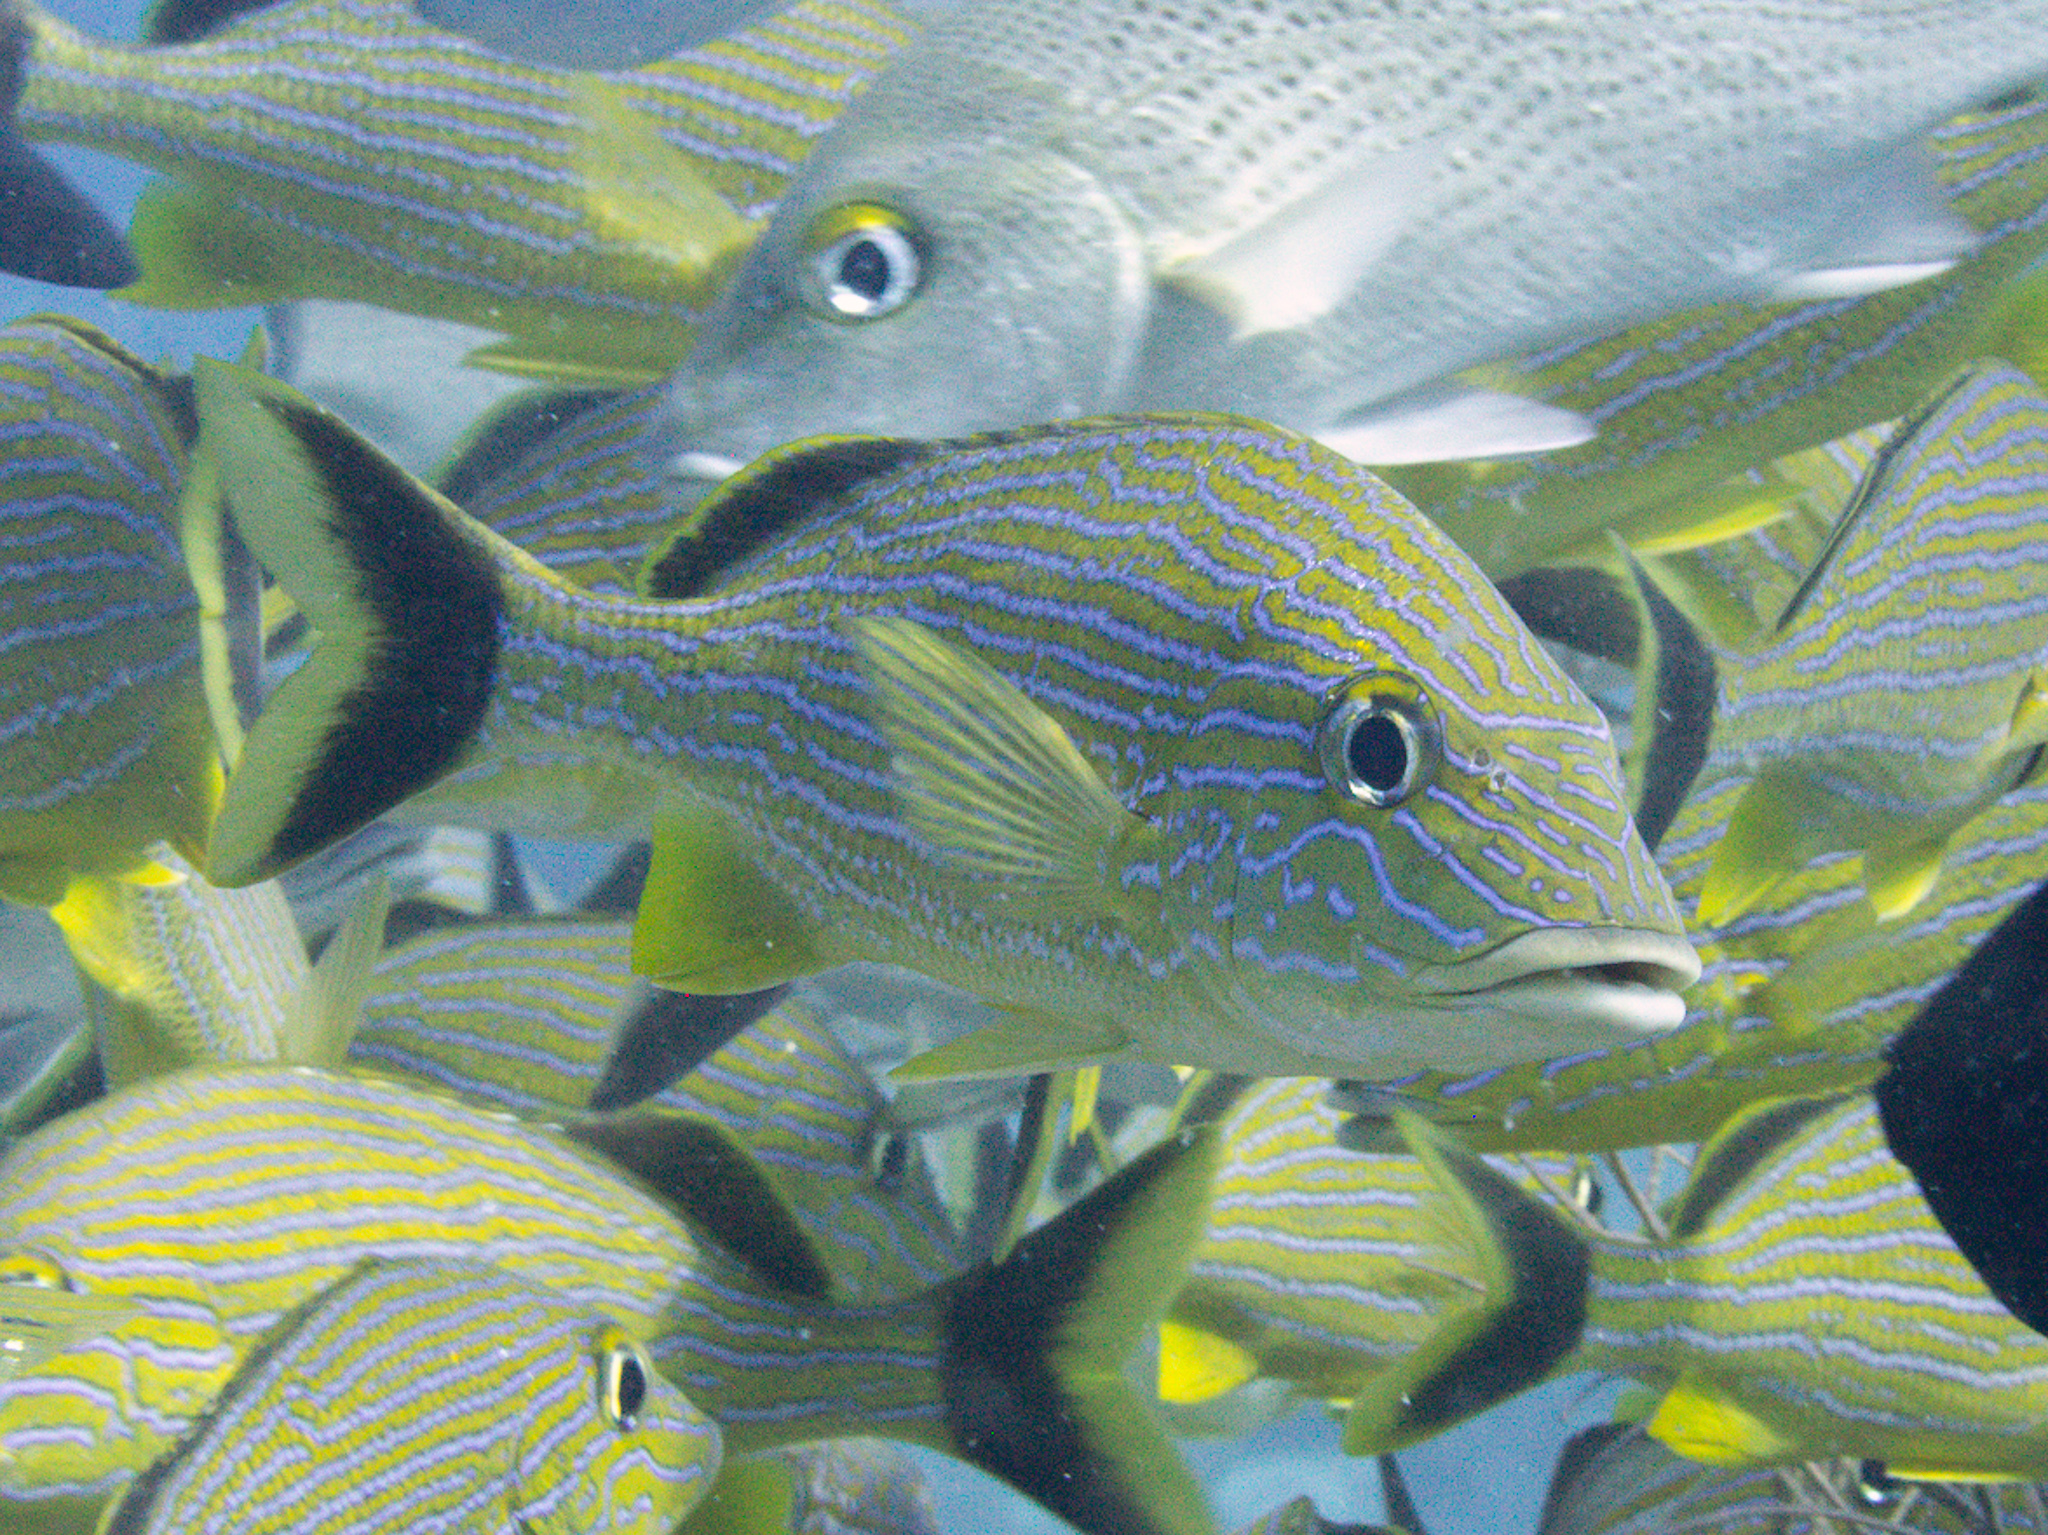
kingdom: Animalia
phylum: Chordata
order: Perciformes
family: Haemulidae
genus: Haemulon
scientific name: Haemulon sciurus
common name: Bluestriped grunt
